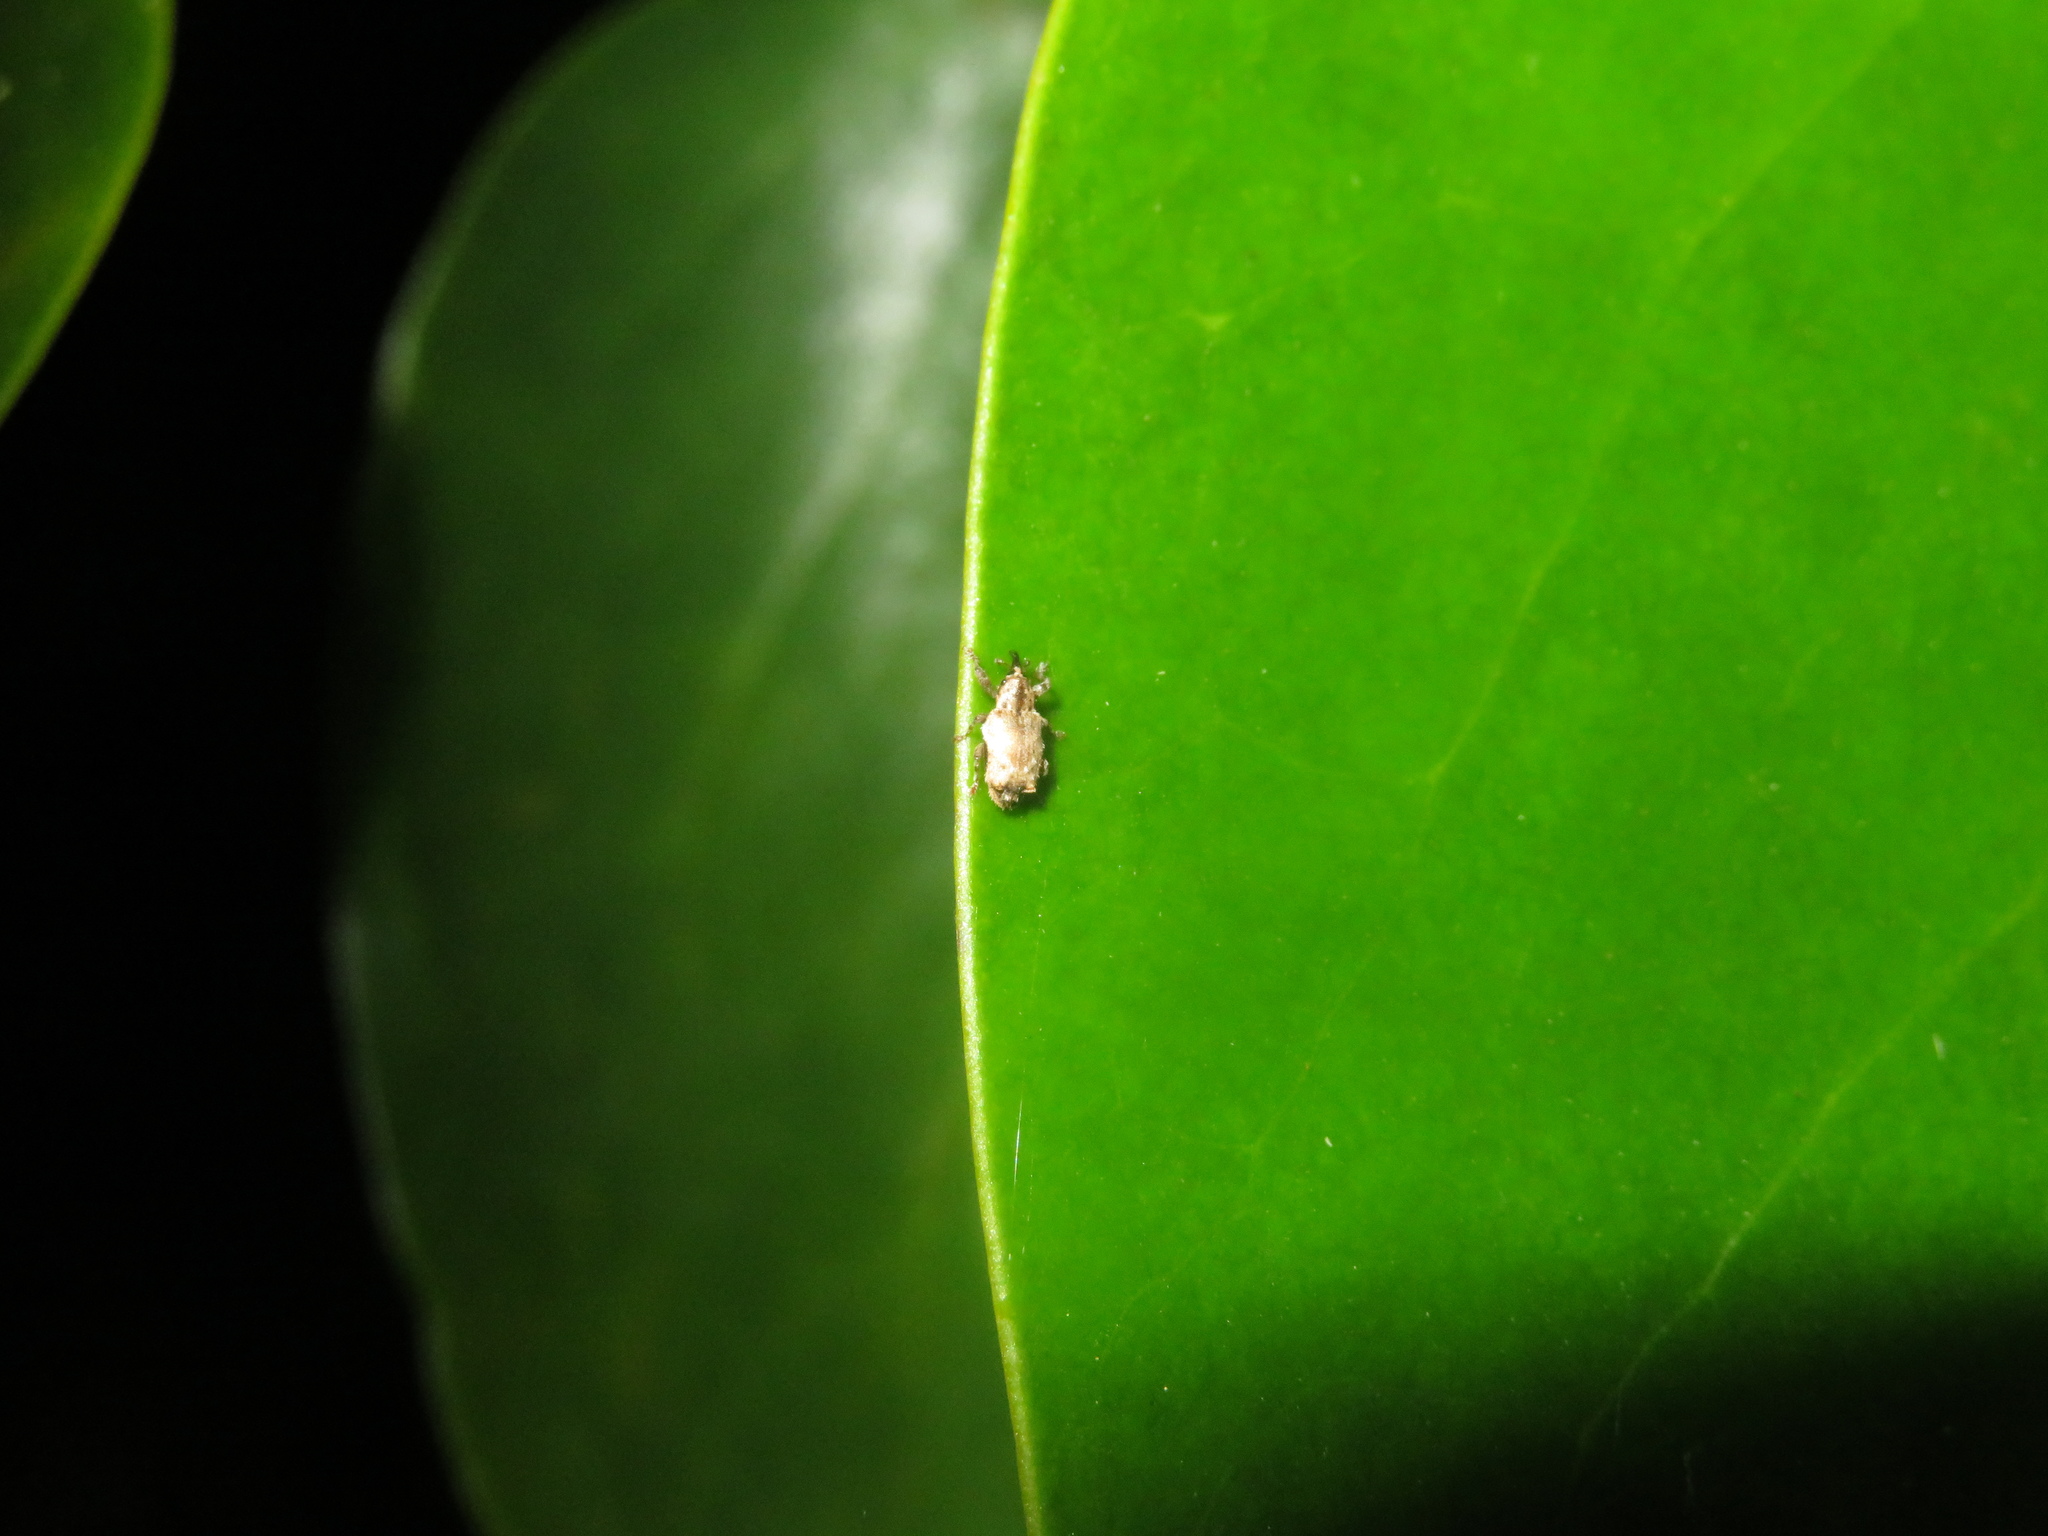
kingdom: Animalia
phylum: Arthropoda
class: Insecta
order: Coleoptera
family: Curculionidae
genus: Praolepra
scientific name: Praolepra squamosa
